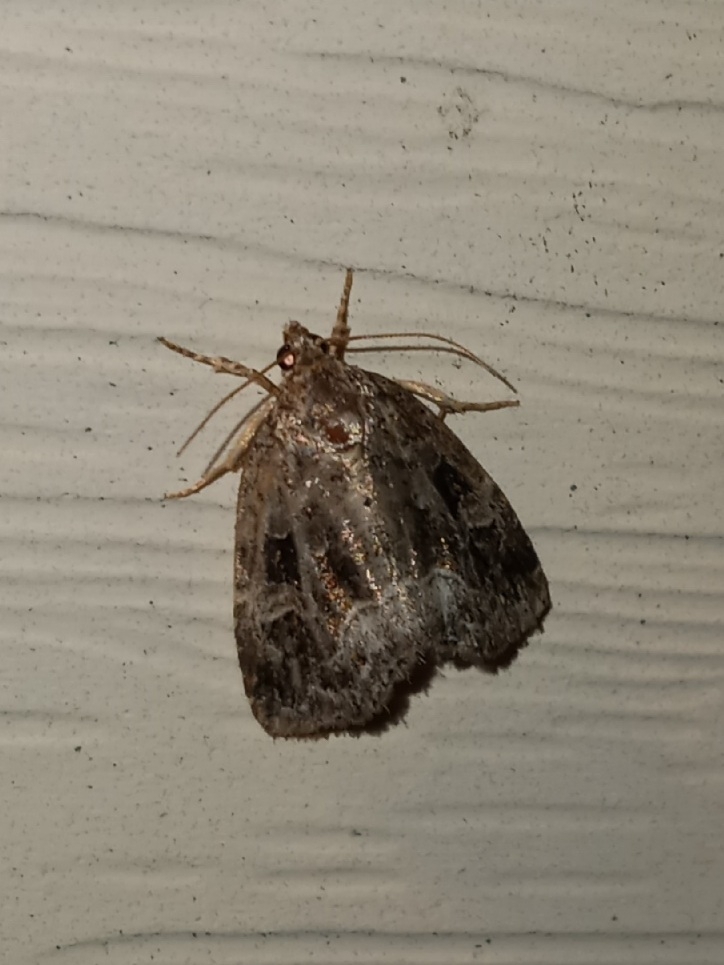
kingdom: Animalia
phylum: Arthropoda
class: Insecta
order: Lepidoptera
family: Noctuidae
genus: Protodeltote
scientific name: Protodeltote muscosula
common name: Large mossy glyph
